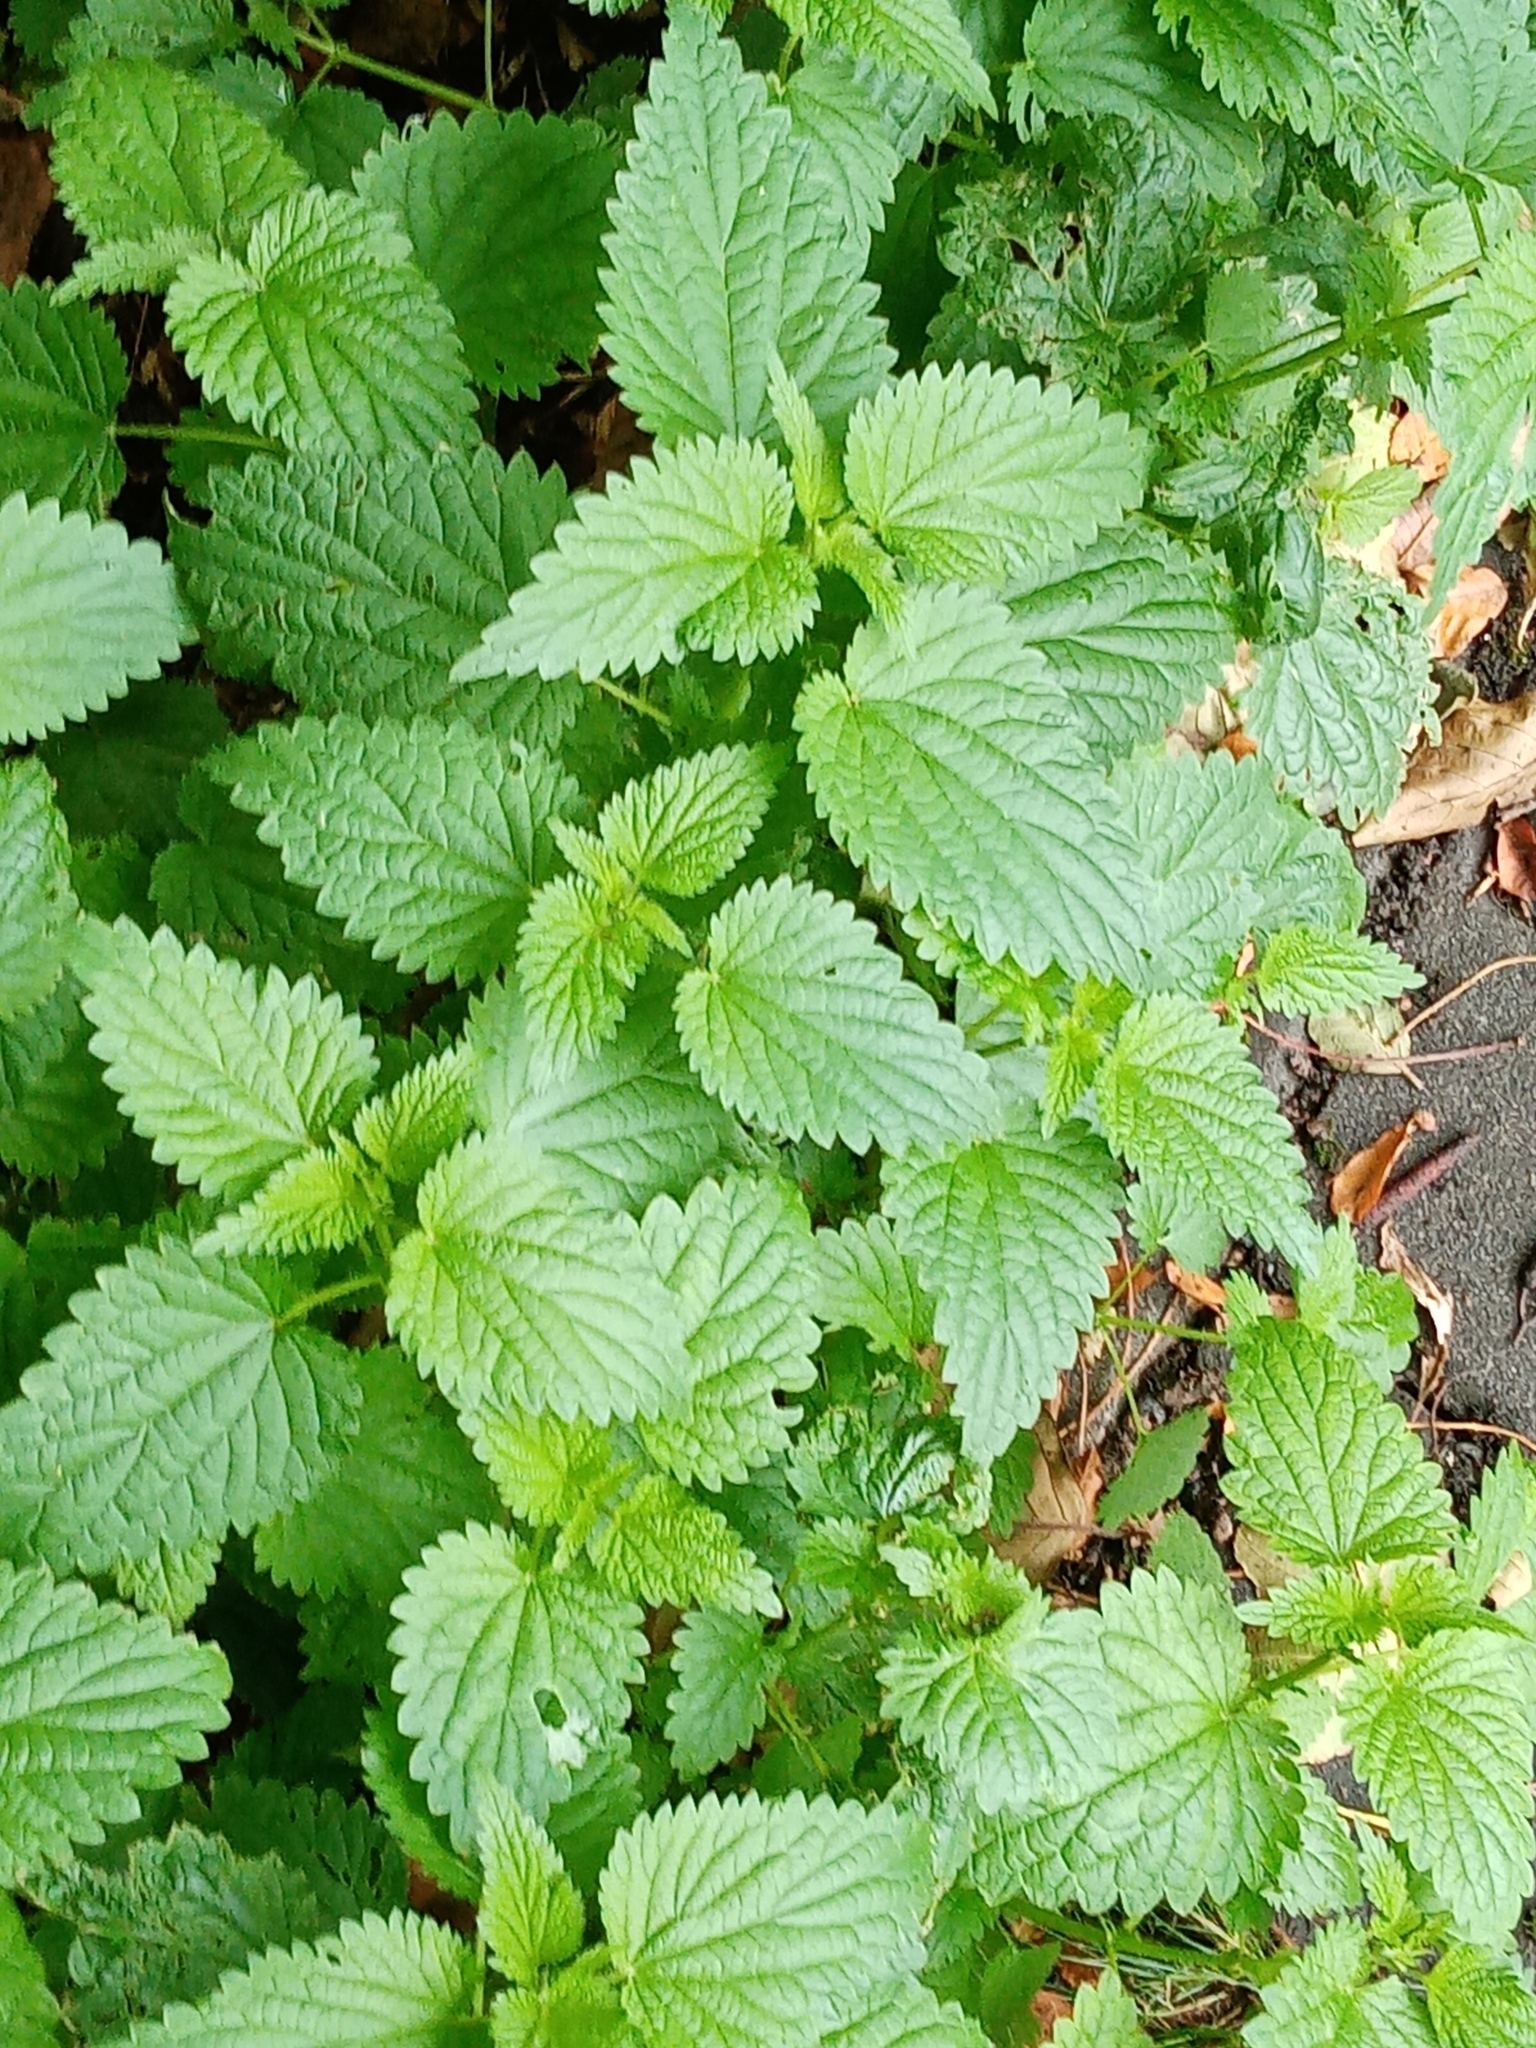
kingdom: Plantae
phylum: Tracheophyta
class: Magnoliopsida
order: Rosales
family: Urticaceae
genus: Urtica
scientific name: Urtica dioica
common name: Common nettle
